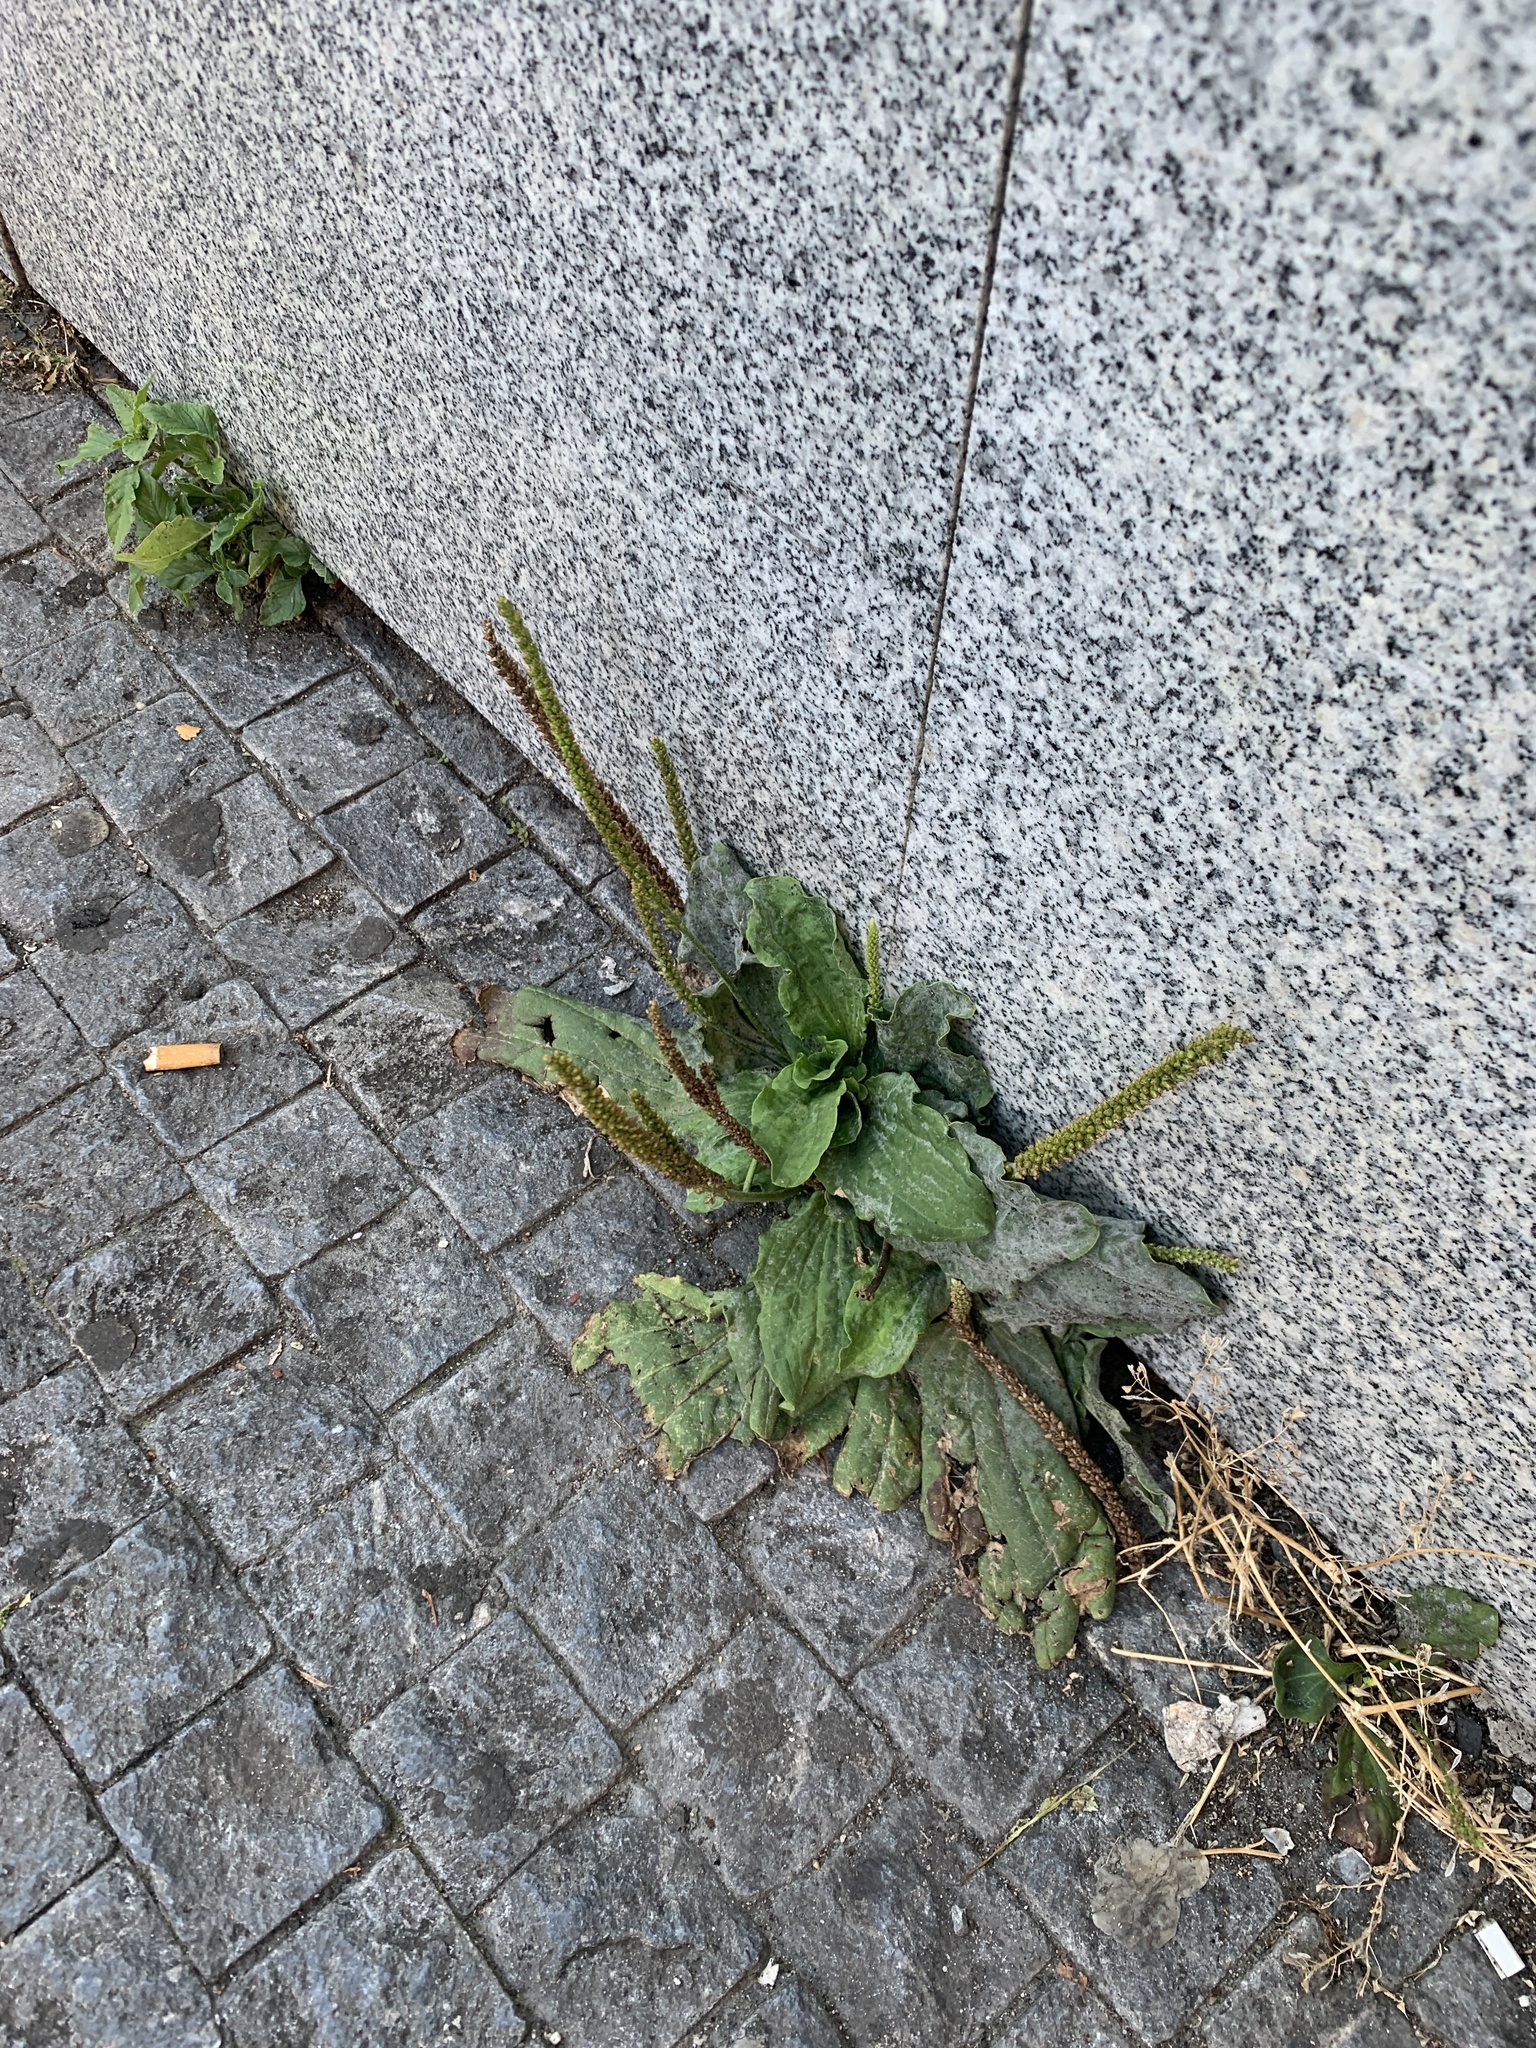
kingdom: Plantae
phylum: Tracheophyta
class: Magnoliopsida
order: Lamiales
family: Plantaginaceae
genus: Plantago
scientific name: Plantago major
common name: Common plantain
